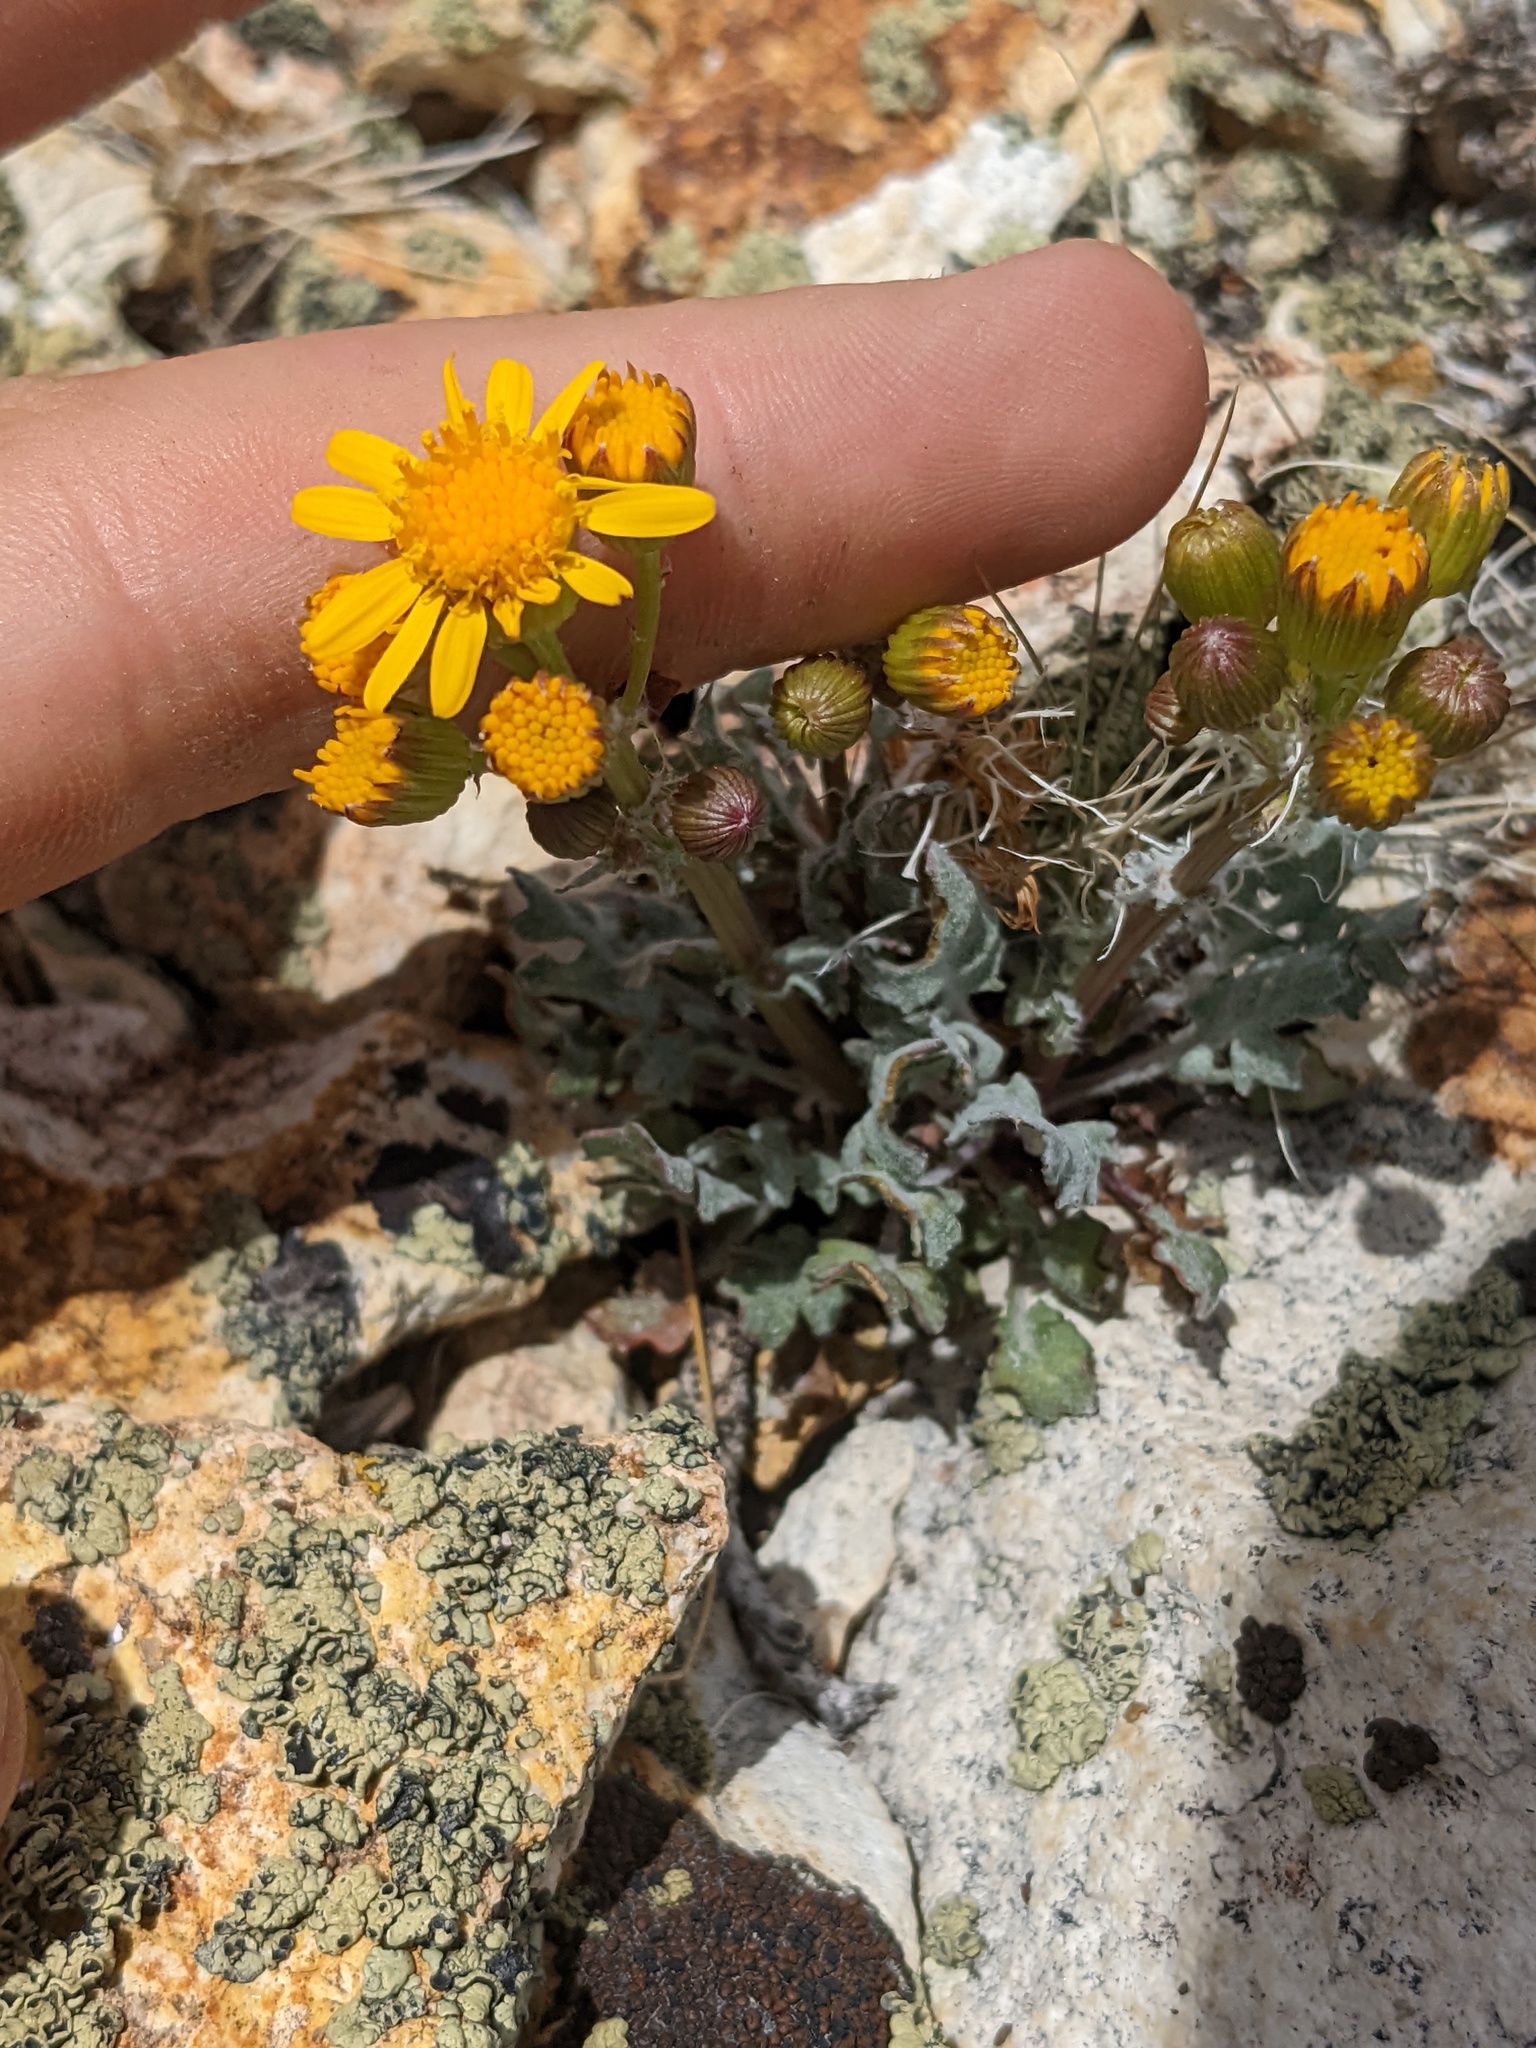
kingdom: Plantae
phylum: Tracheophyta
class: Magnoliopsida
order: Asterales
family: Asteraceae
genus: Packera
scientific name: Packera multilobata
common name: Lobe-leaf groundsel
